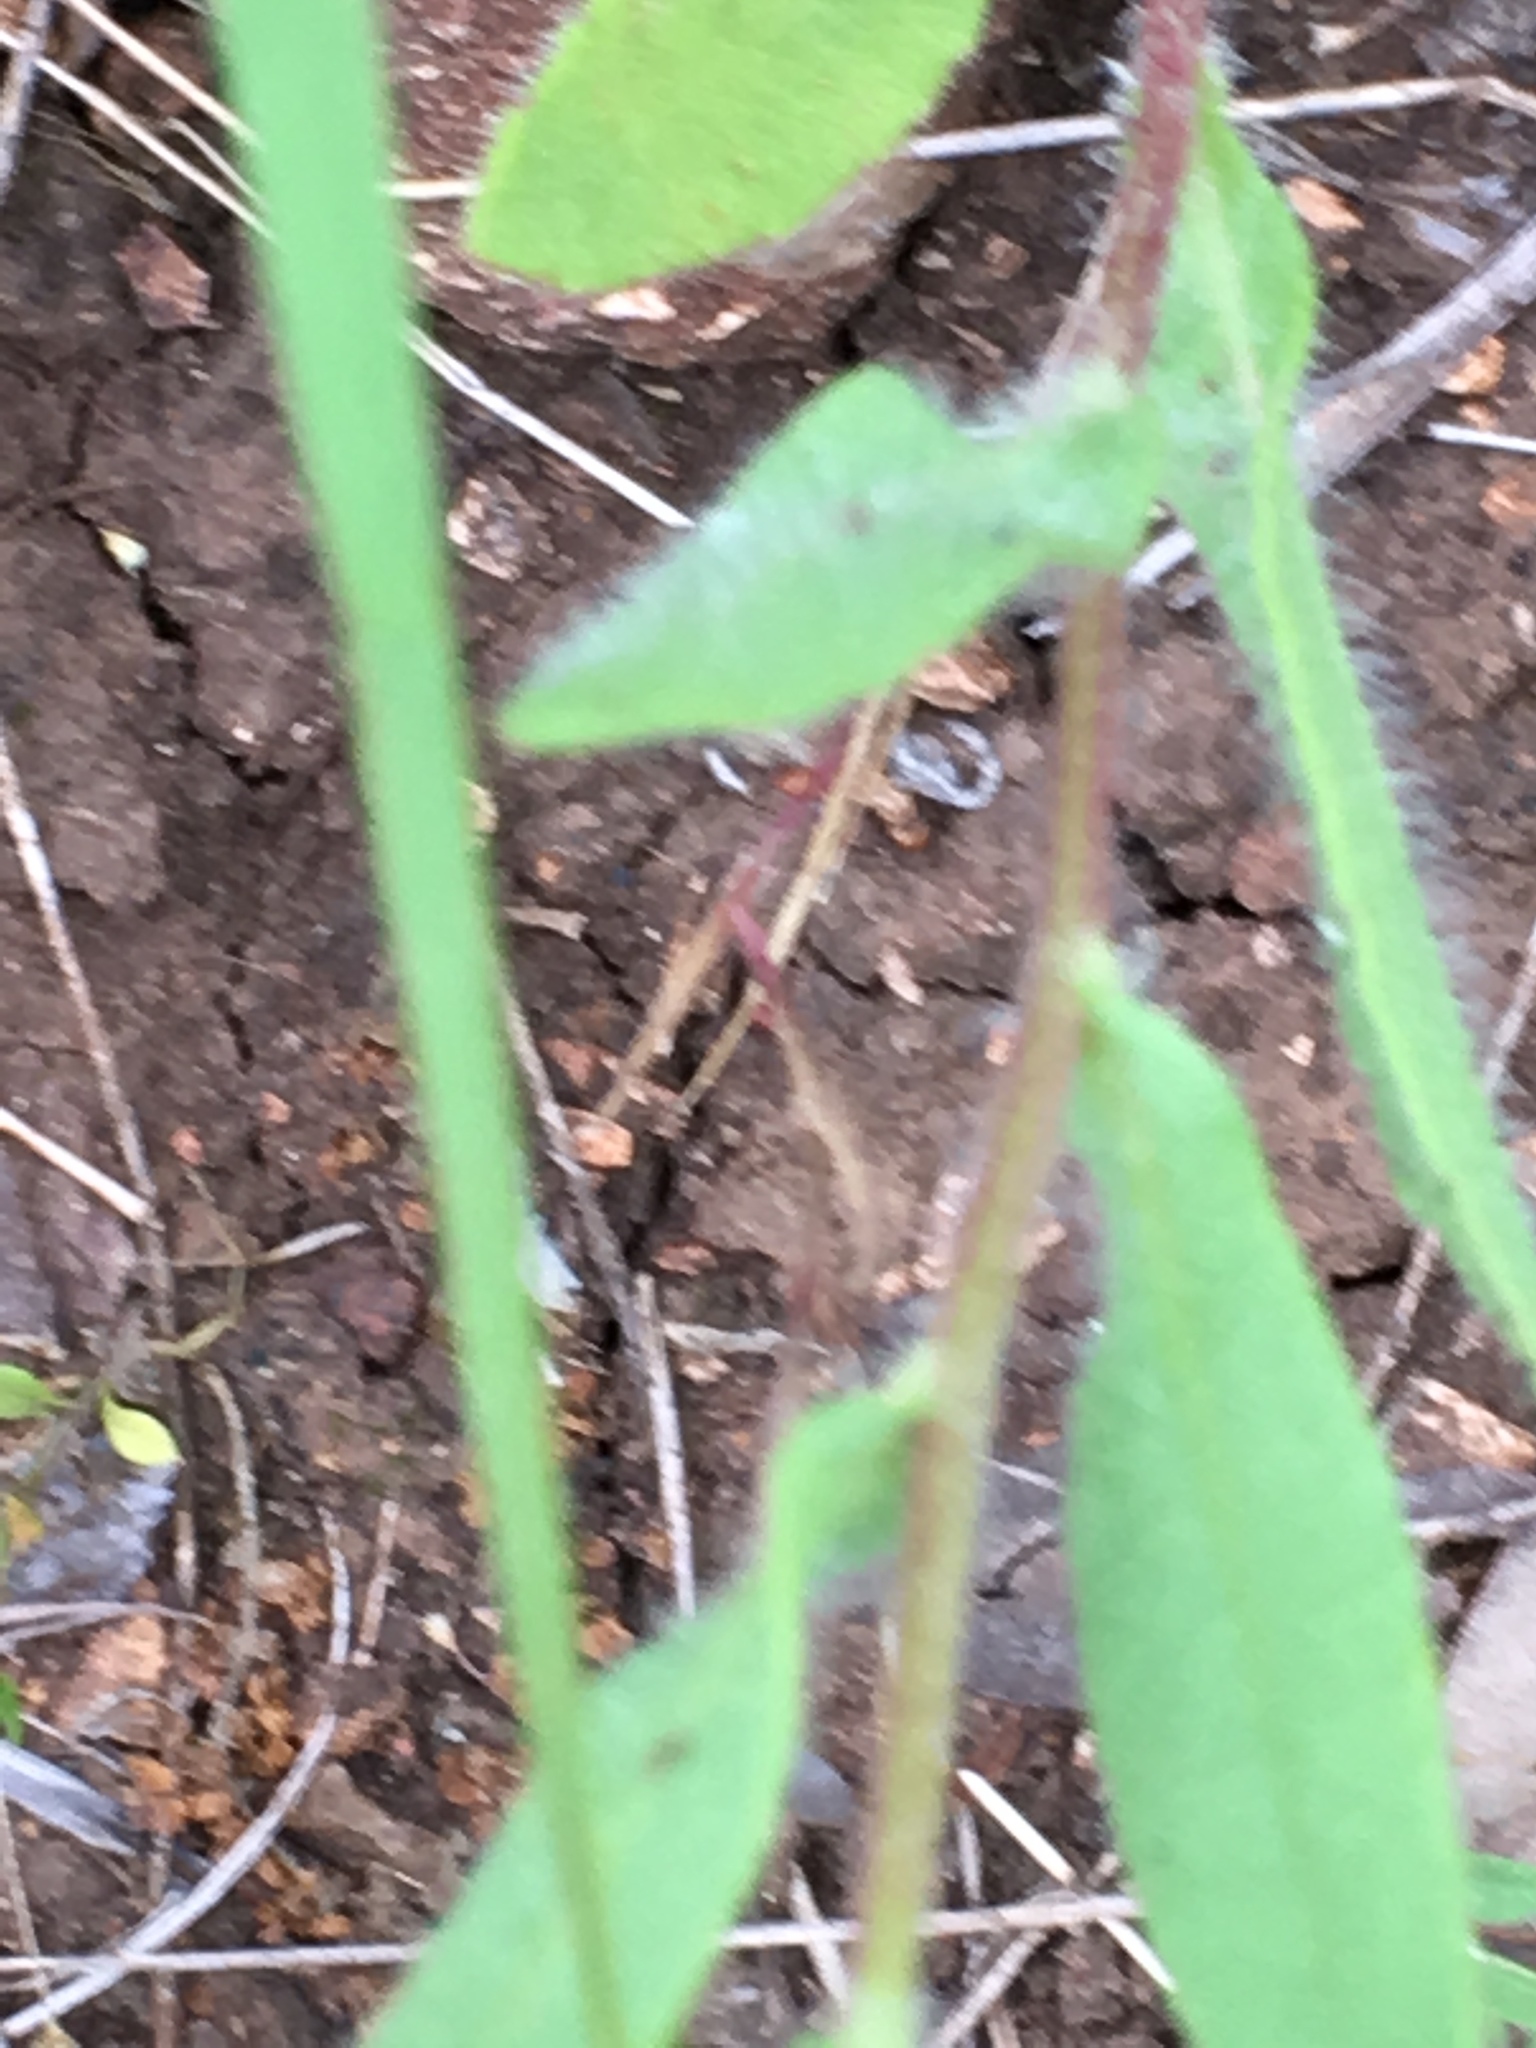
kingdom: Plantae
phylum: Tracheophyta
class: Magnoliopsida
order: Asterales
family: Asteraceae
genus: Gaillardia
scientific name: Gaillardia pulchella
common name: Firewheel
